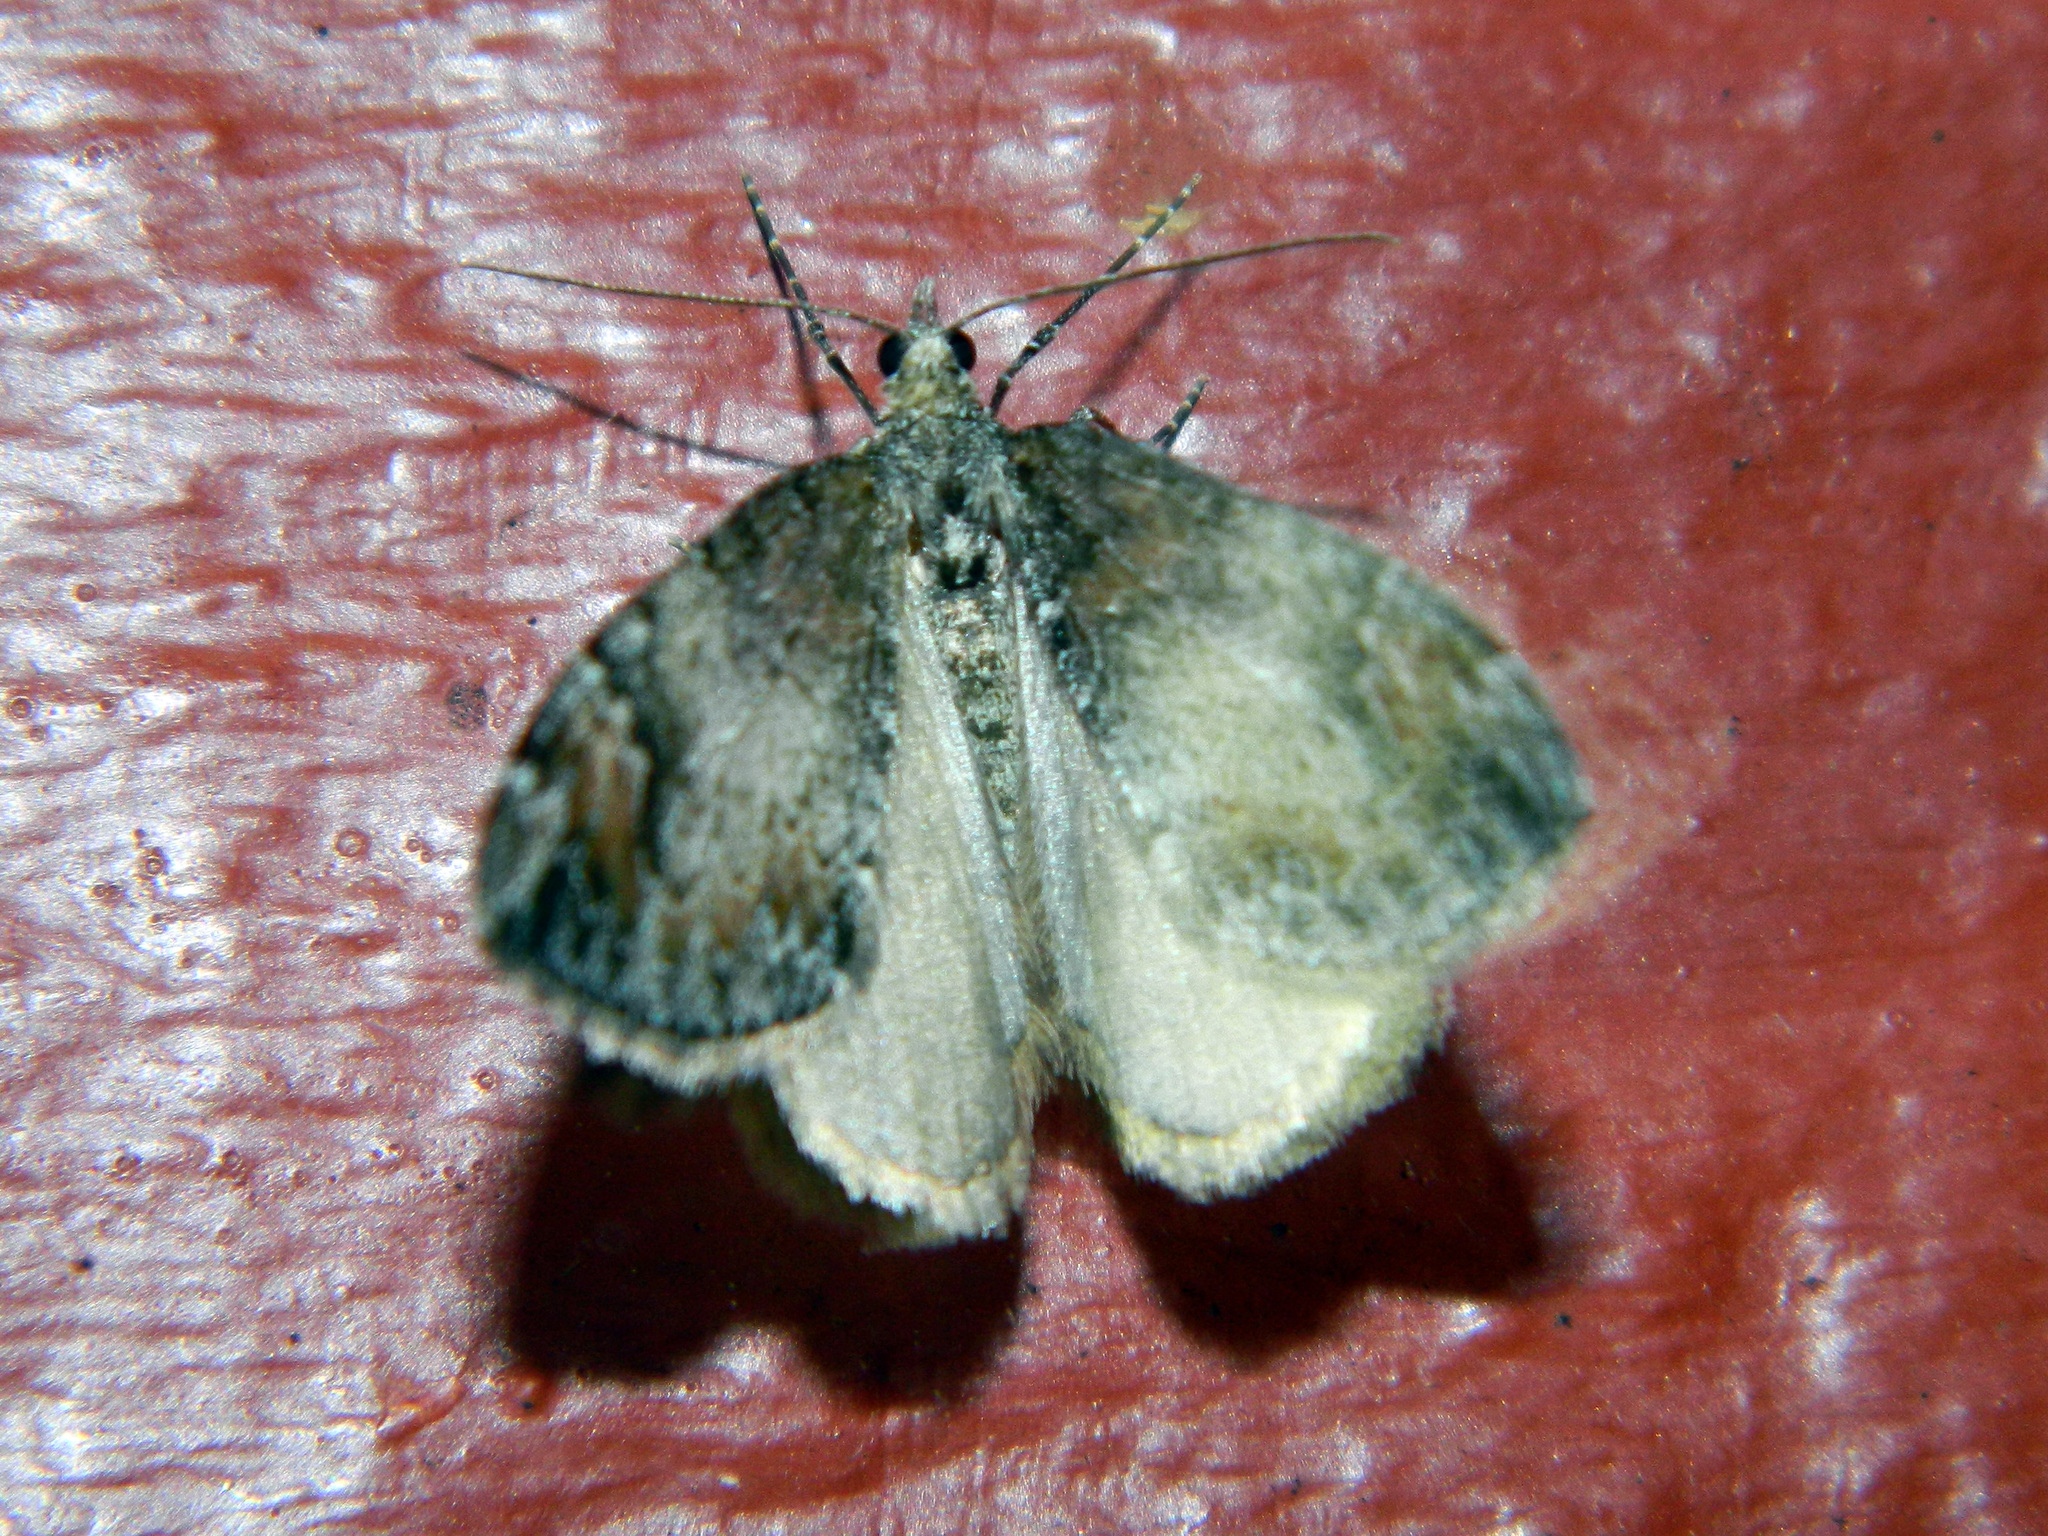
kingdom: Animalia
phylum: Arthropoda
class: Insecta
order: Lepidoptera
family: Geometridae
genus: Dysstroma
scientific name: Dysstroma citrata
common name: Dark marbled carpet
